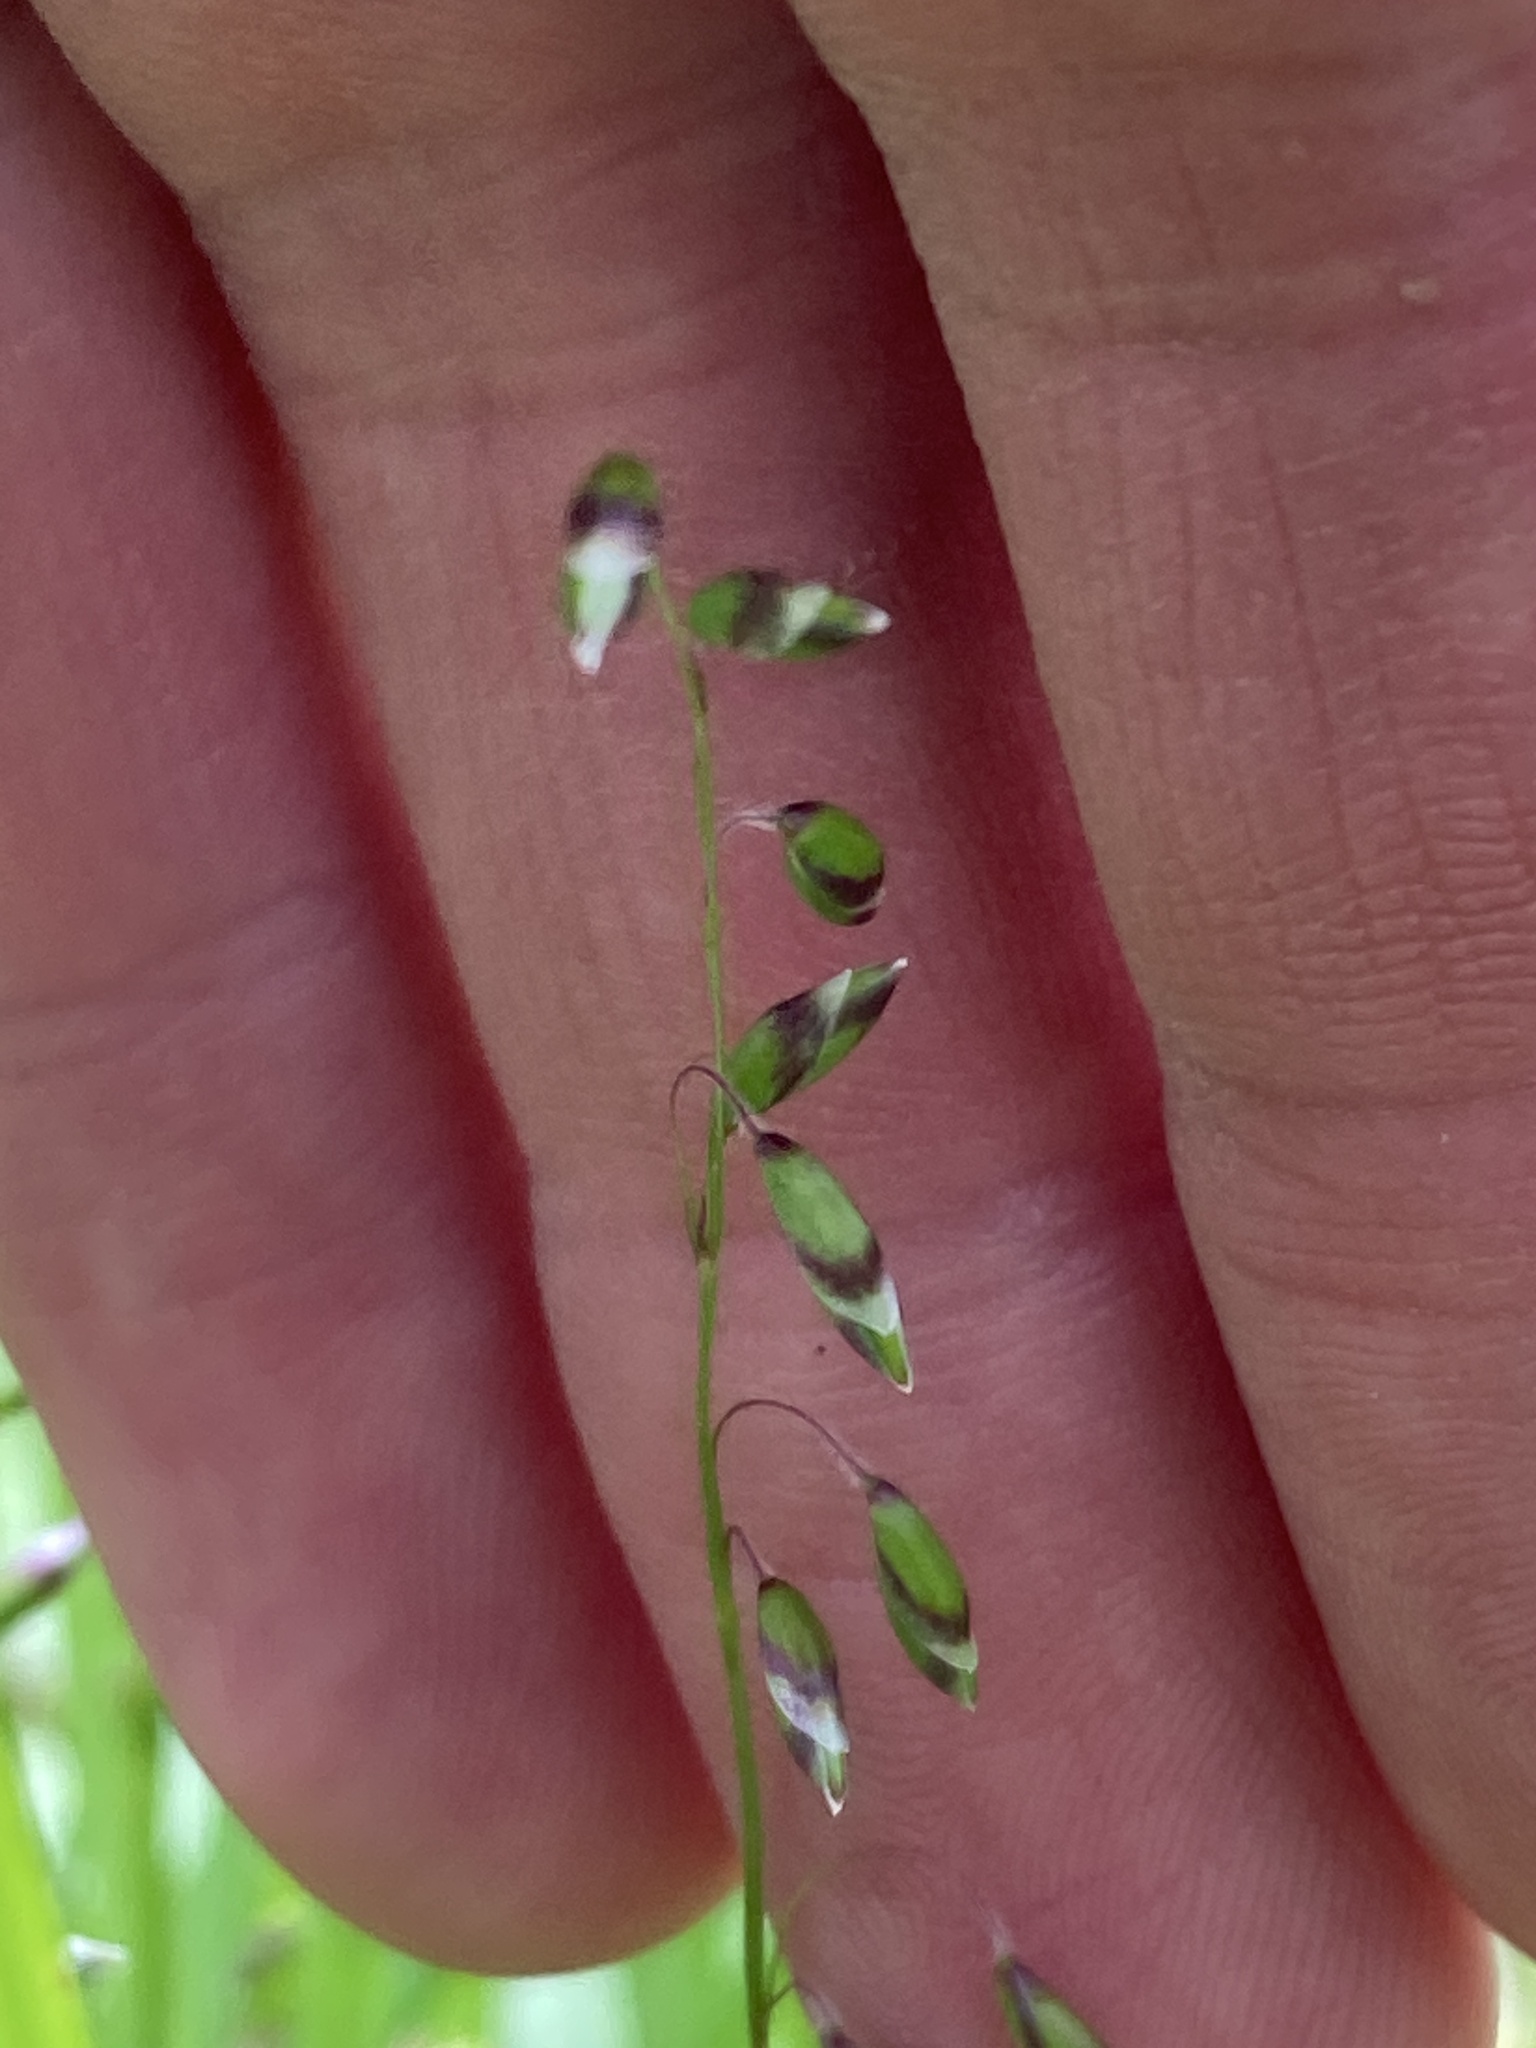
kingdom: Plantae
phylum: Tracheophyta
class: Liliopsida
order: Poales
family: Poaceae
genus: Melica
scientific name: Melica picta
